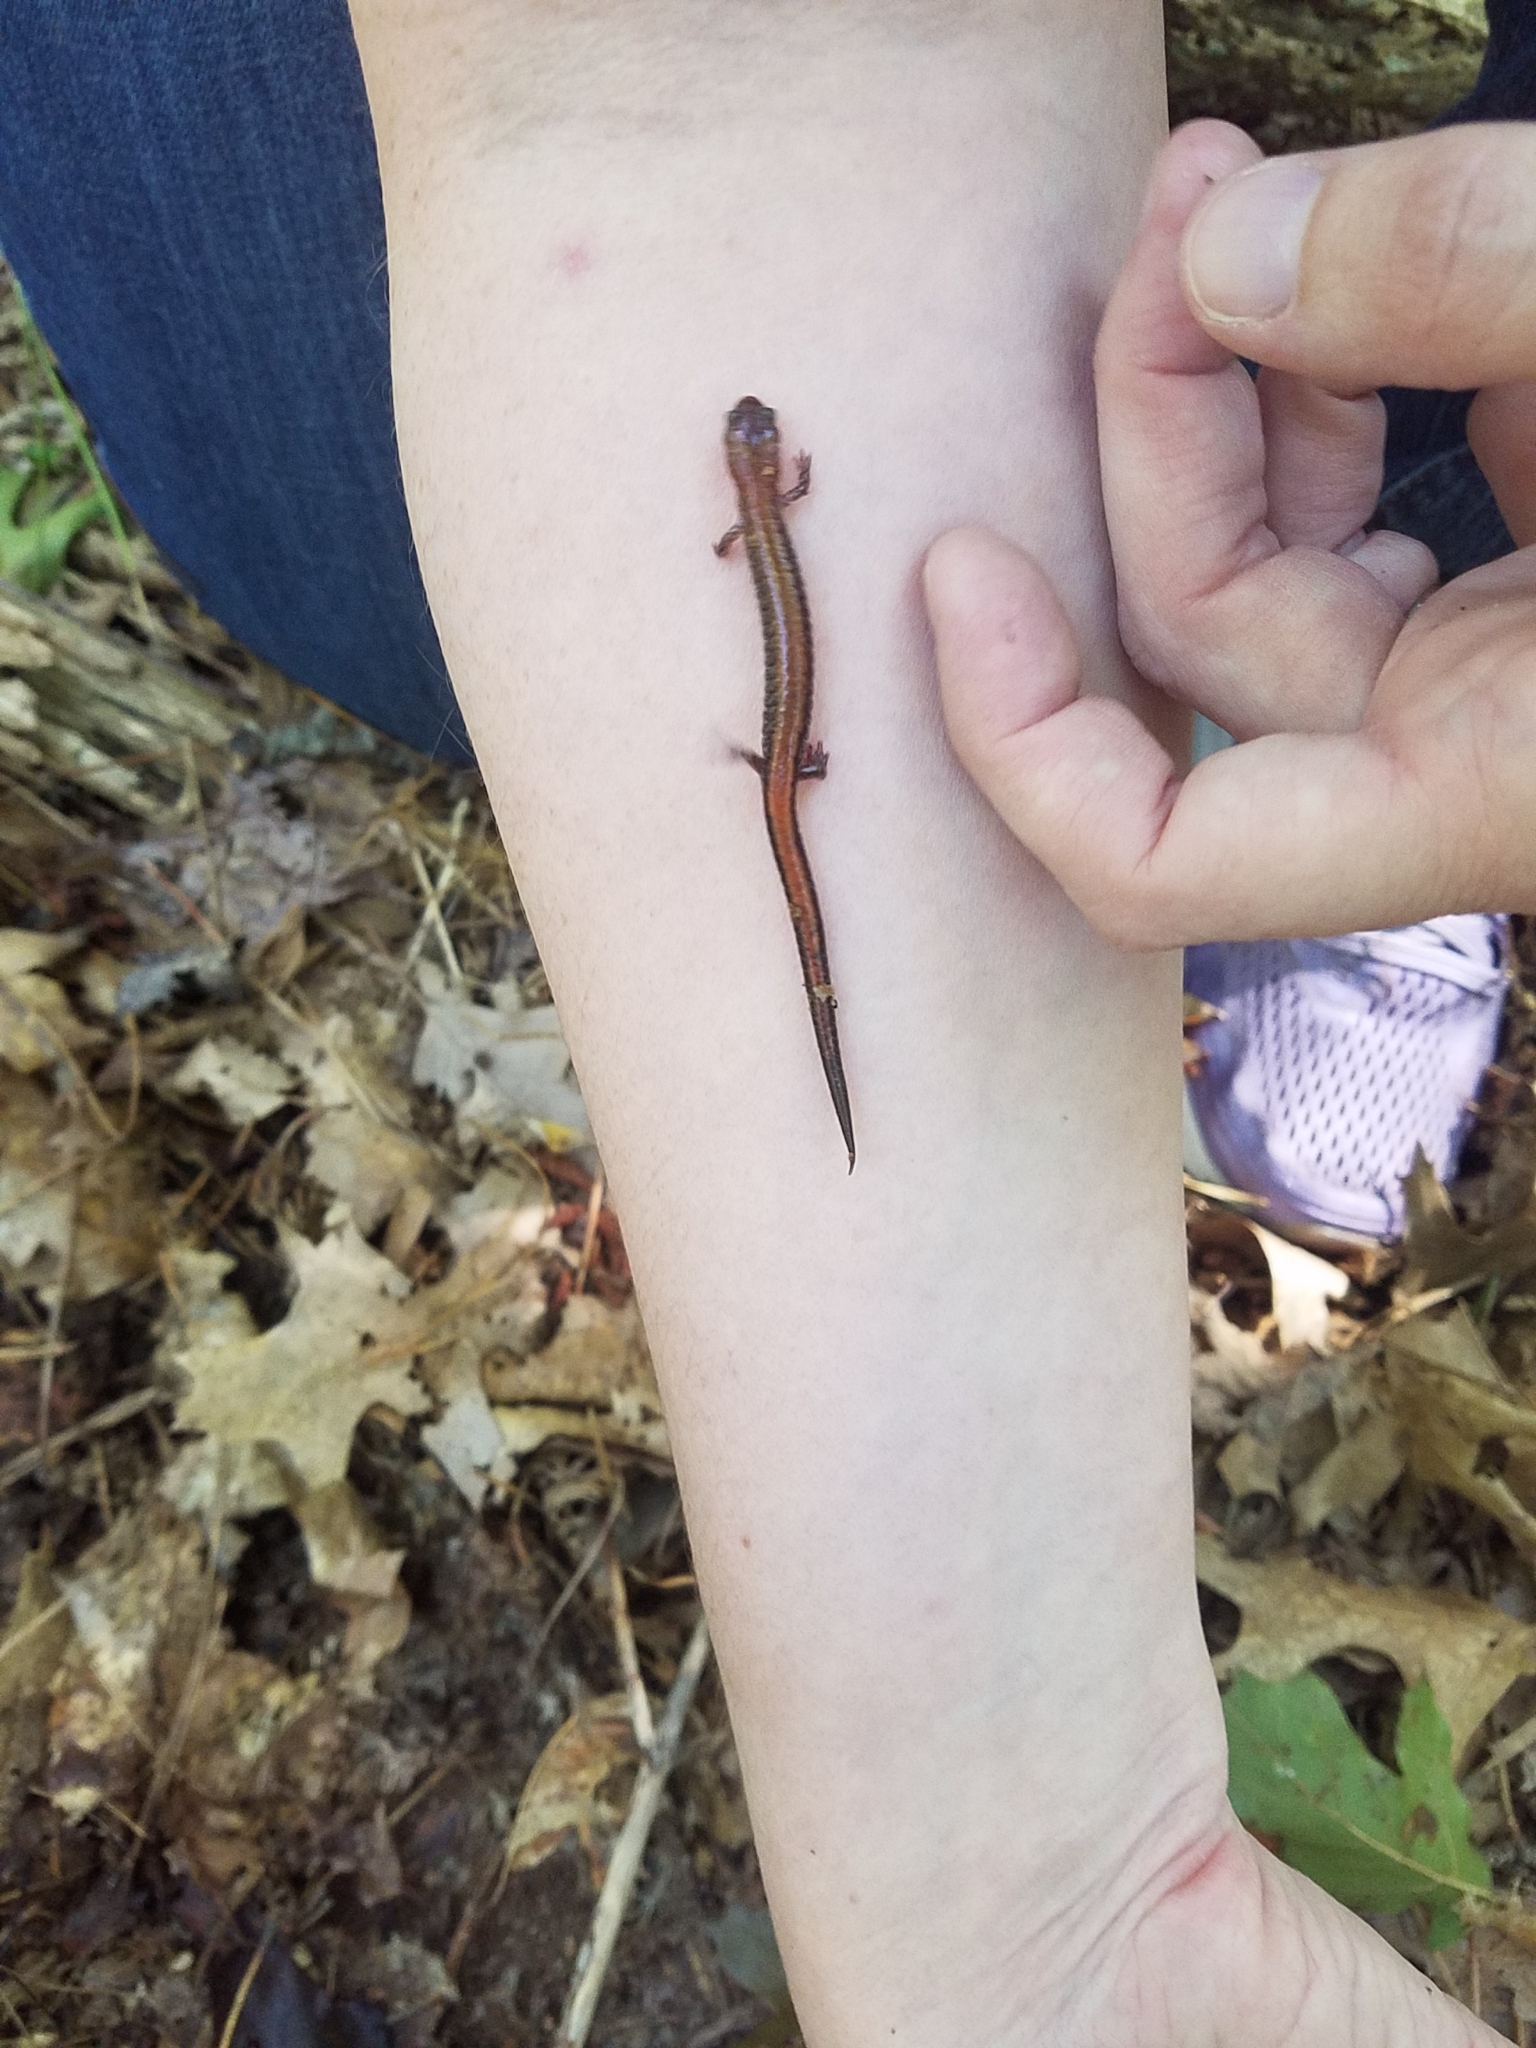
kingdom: Animalia
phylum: Chordata
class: Amphibia
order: Caudata
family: Plethodontidae
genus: Plethodon
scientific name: Plethodon cinereus
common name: Redback salamander
